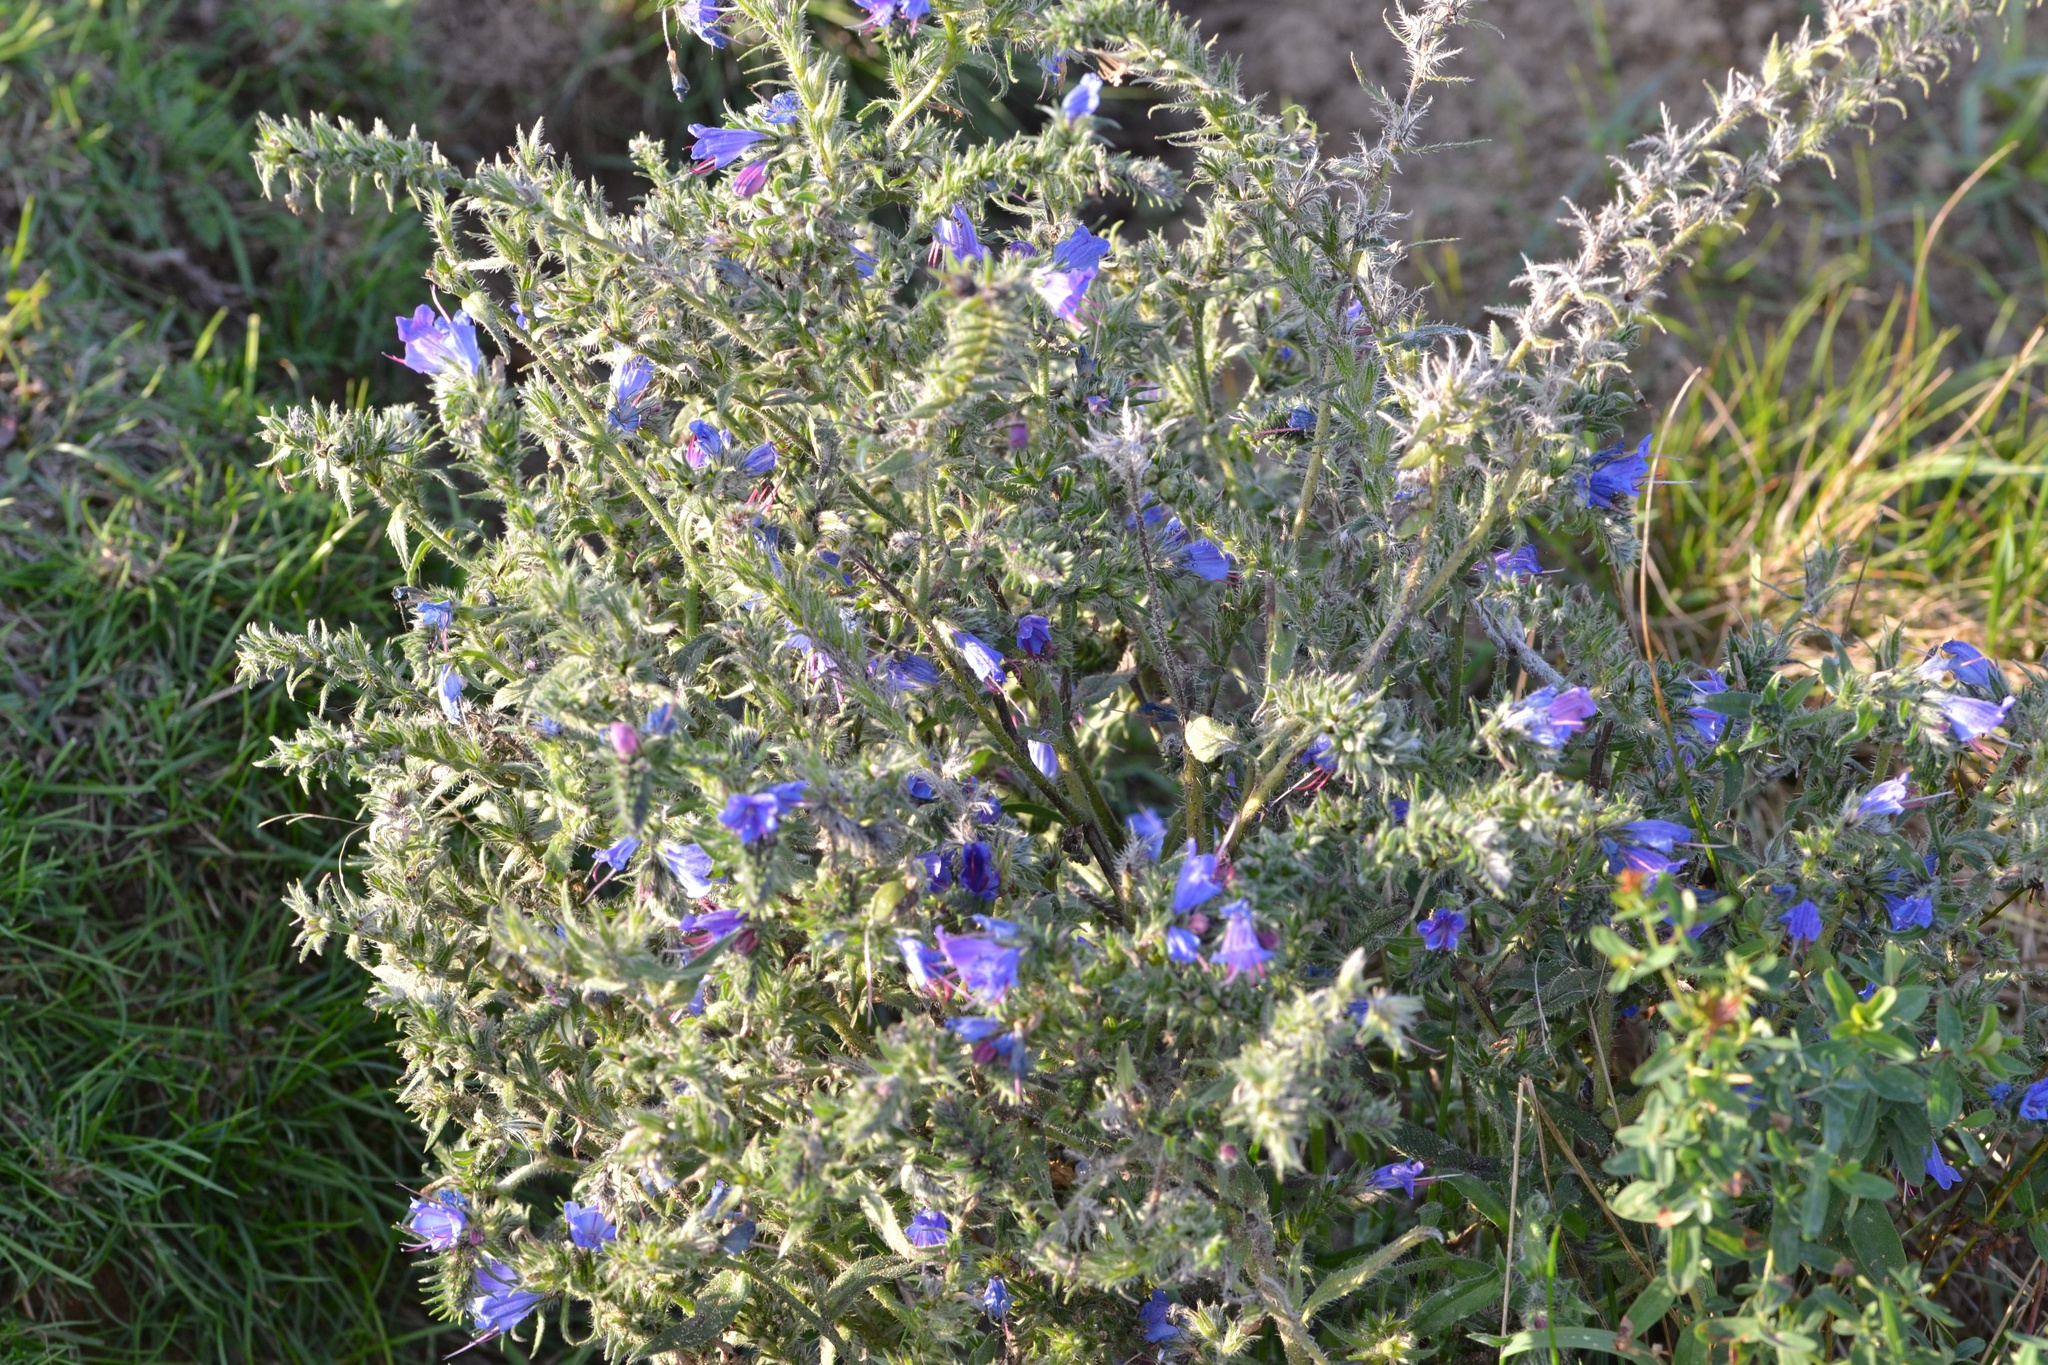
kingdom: Plantae
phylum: Tracheophyta
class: Magnoliopsida
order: Boraginales
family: Boraginaceae
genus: Echium
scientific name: Echium vulgare
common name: Common viper's bugloss
